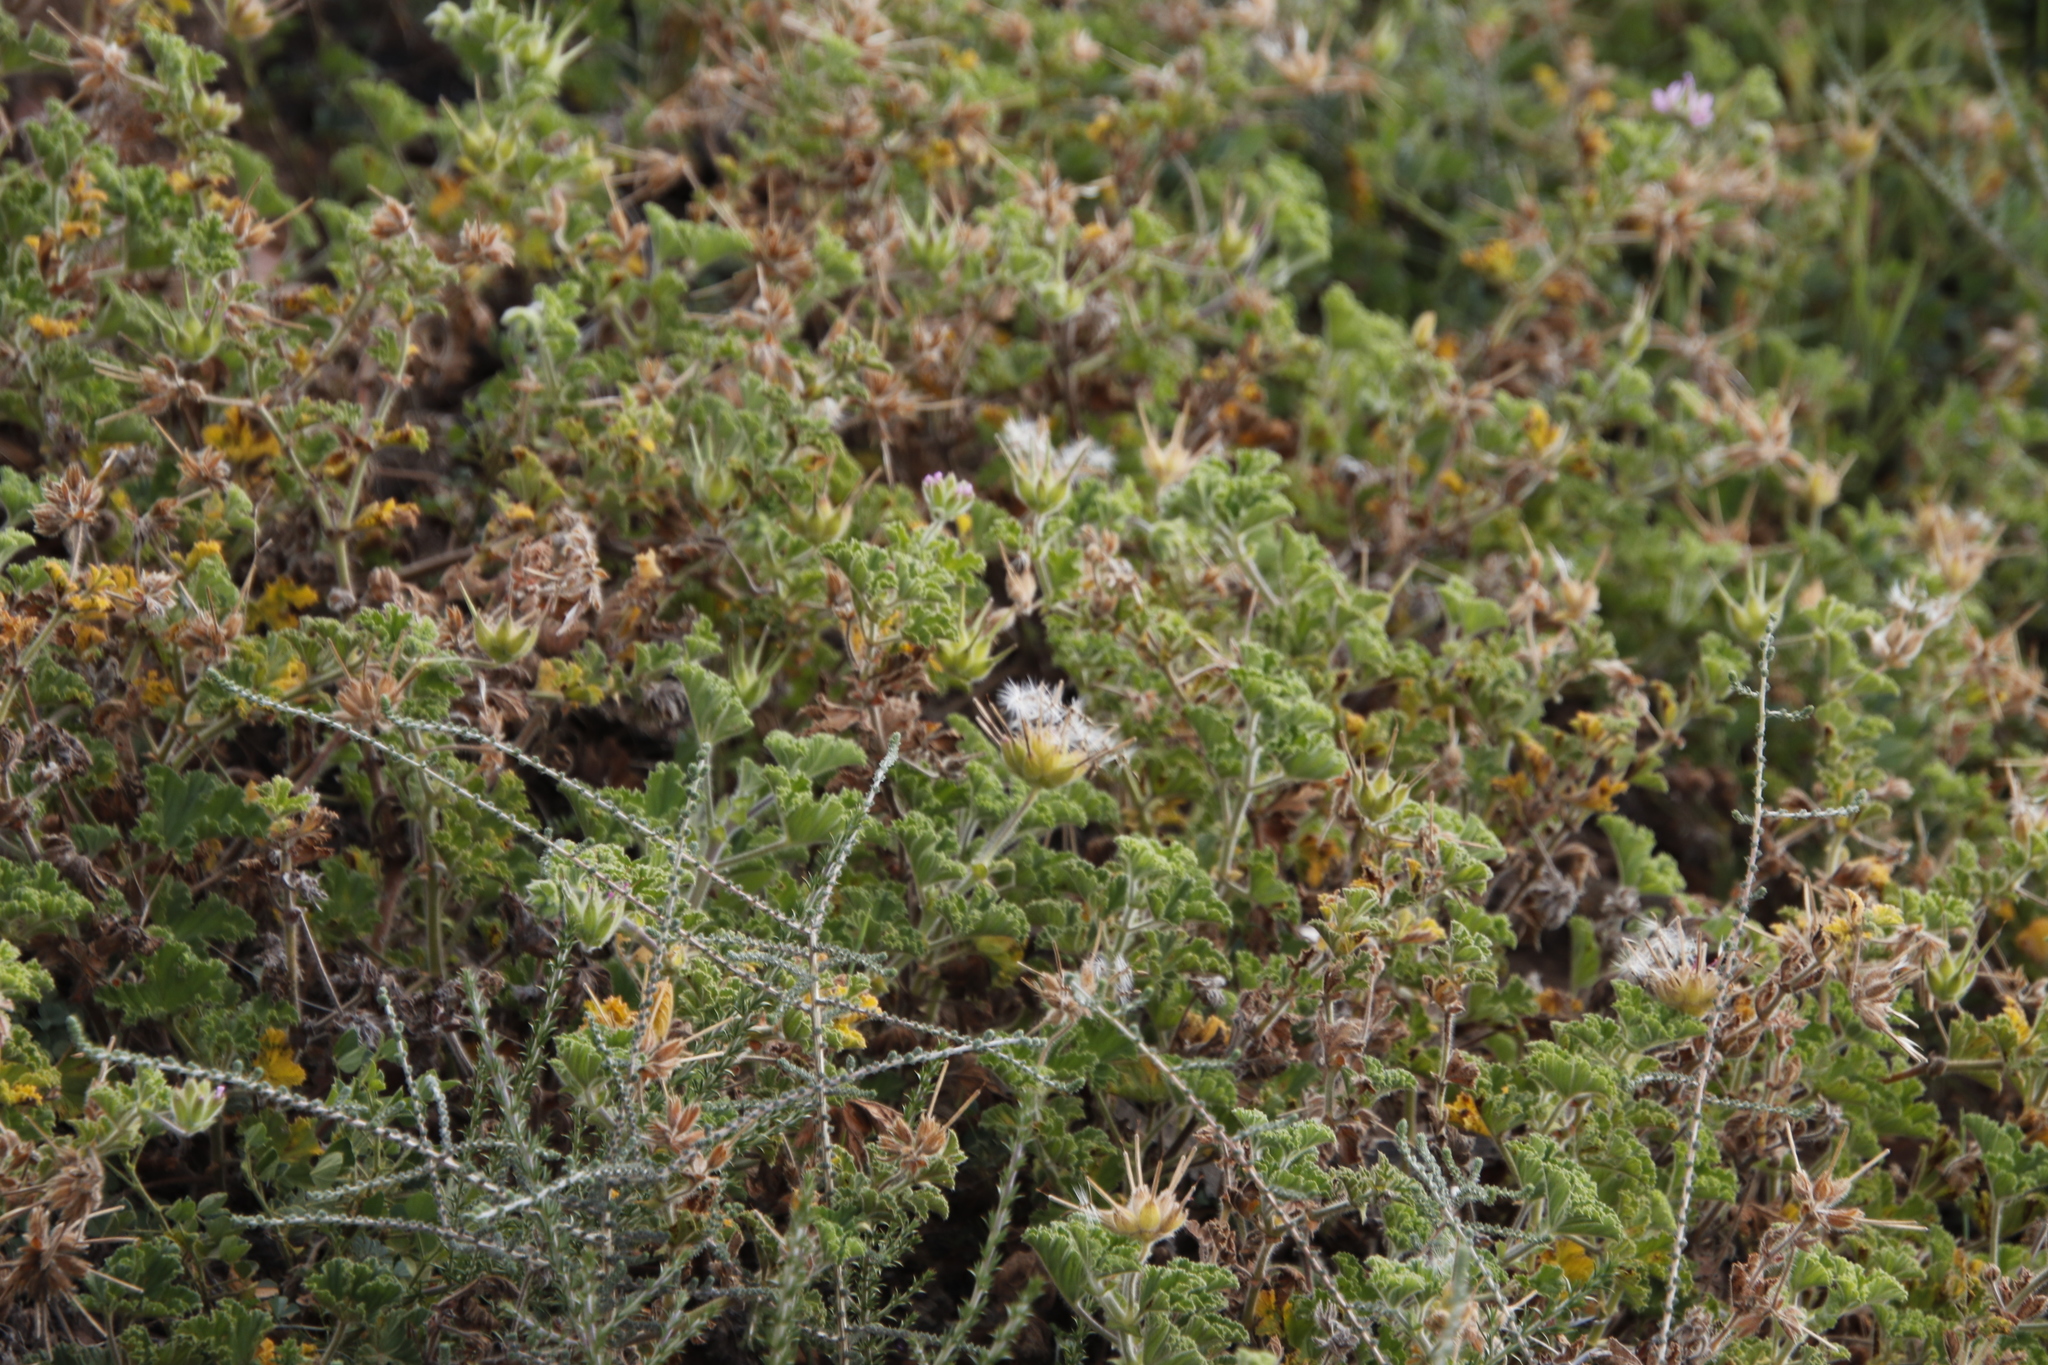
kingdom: Plantae
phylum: Tracheophyta
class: Magnoliopsida
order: Geraniales
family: Geraniaceae
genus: Pelargonium
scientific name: Pelargonium capitatum
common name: Rose scented geranium
